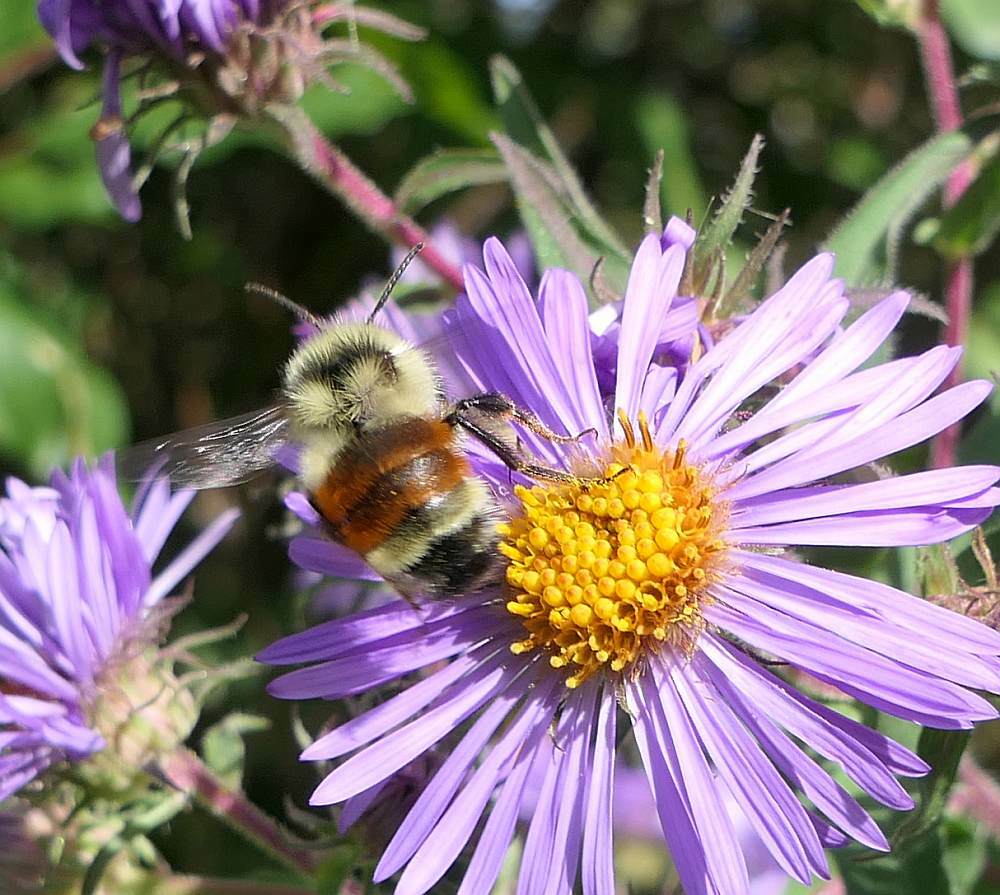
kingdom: Animalia
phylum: Arthropoda
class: Insecta
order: Hymenoptera
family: Apidae
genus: Bombus
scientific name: Bombus ternarius
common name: Tri-colored bumble bee
